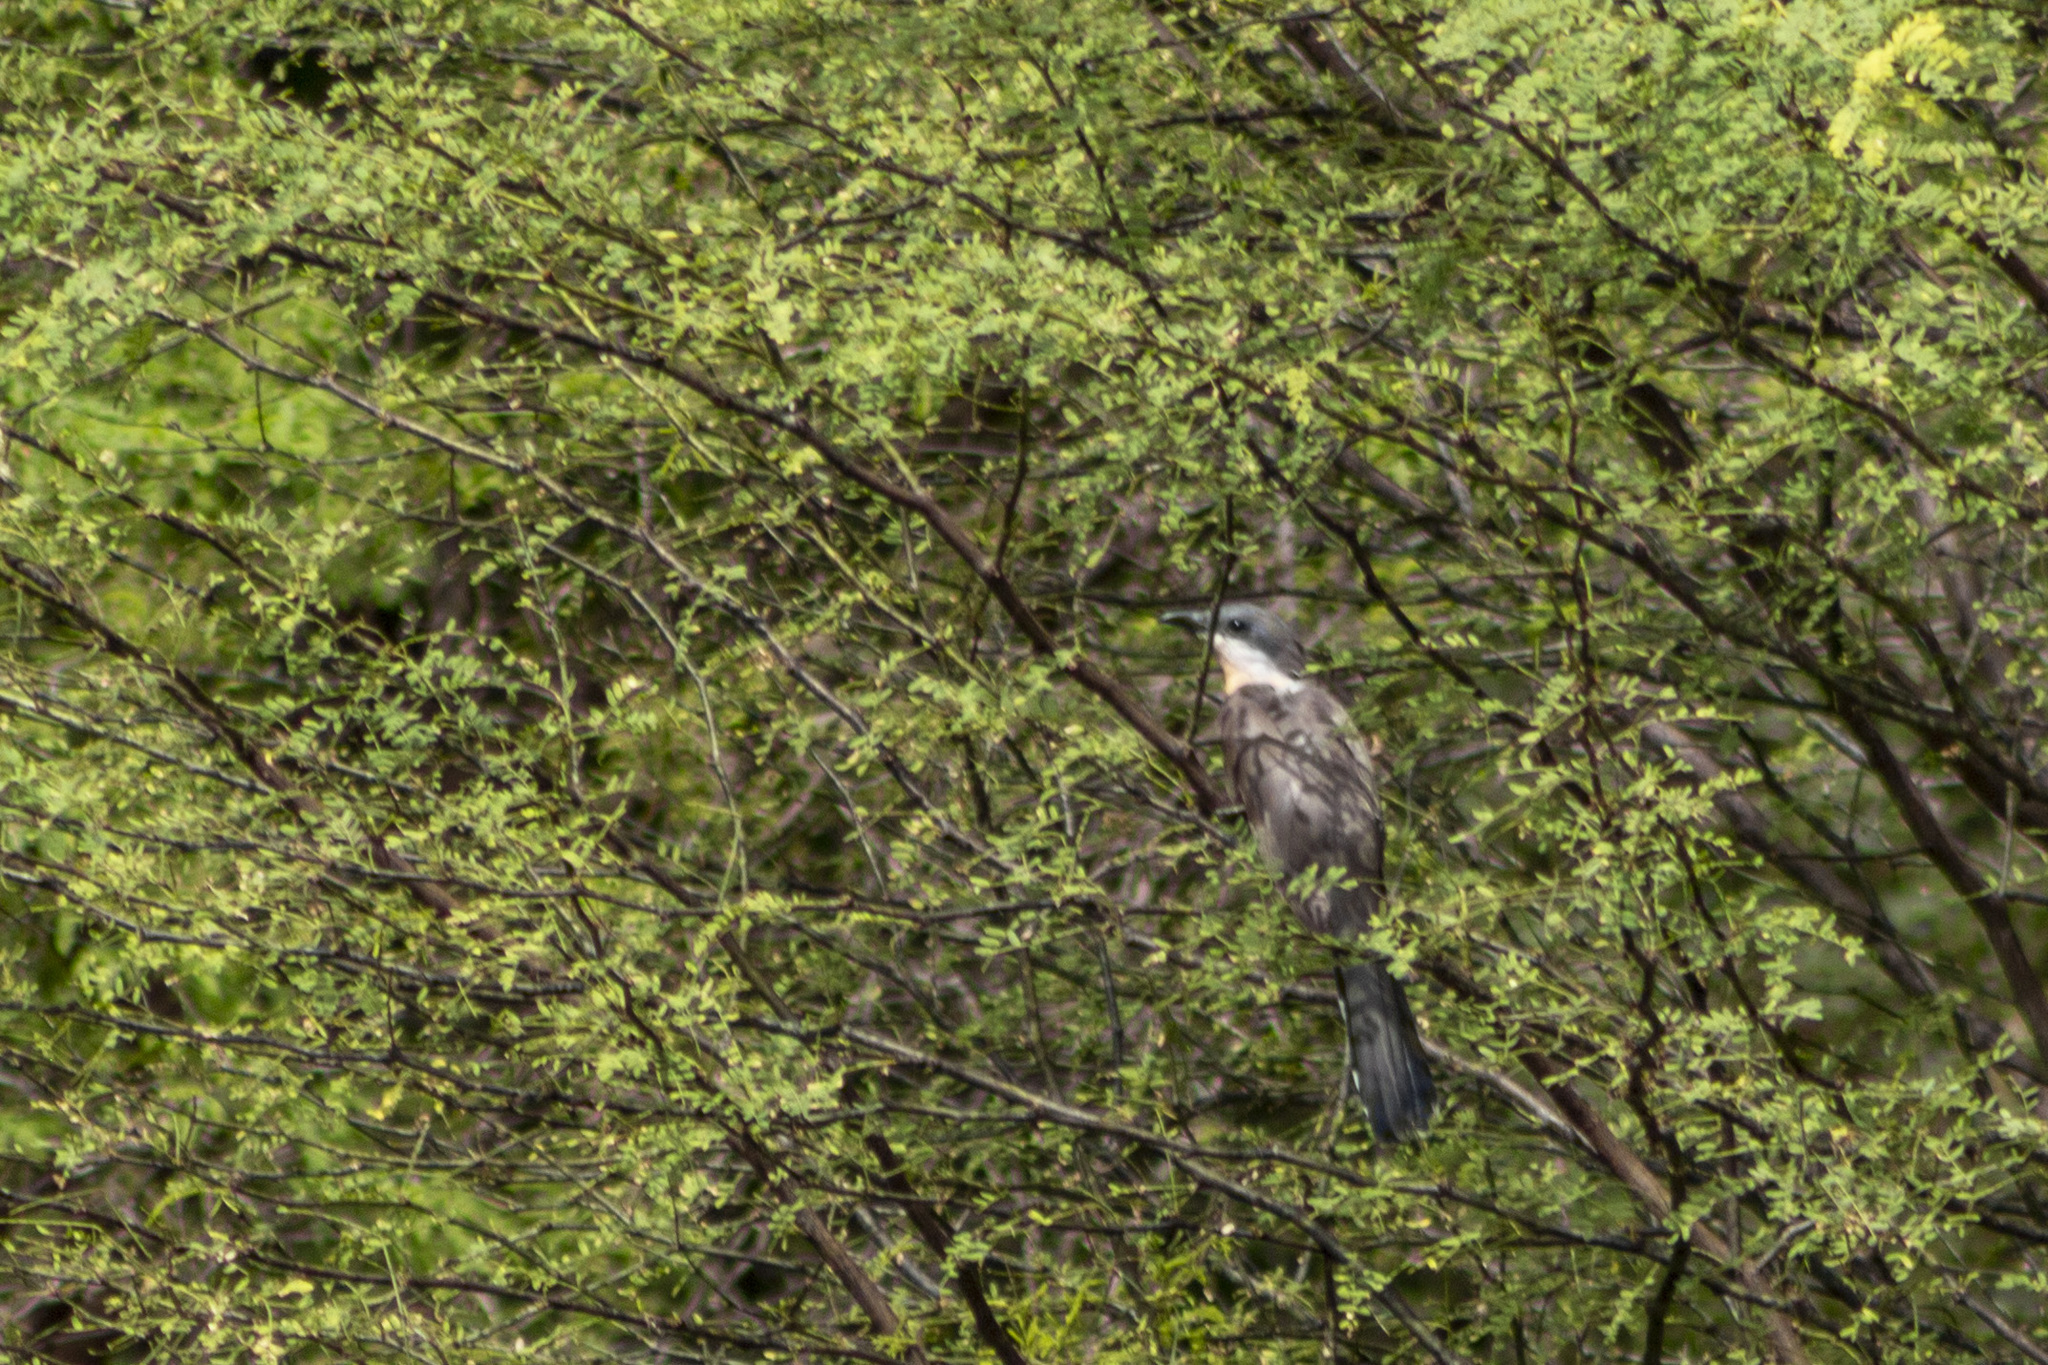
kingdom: Animalia
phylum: Chordata
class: Aves
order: Cuculiformes
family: Cuculidae
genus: Coccyzus
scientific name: Coccyzus melacoryphus
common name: Dark-billed cuckoo
